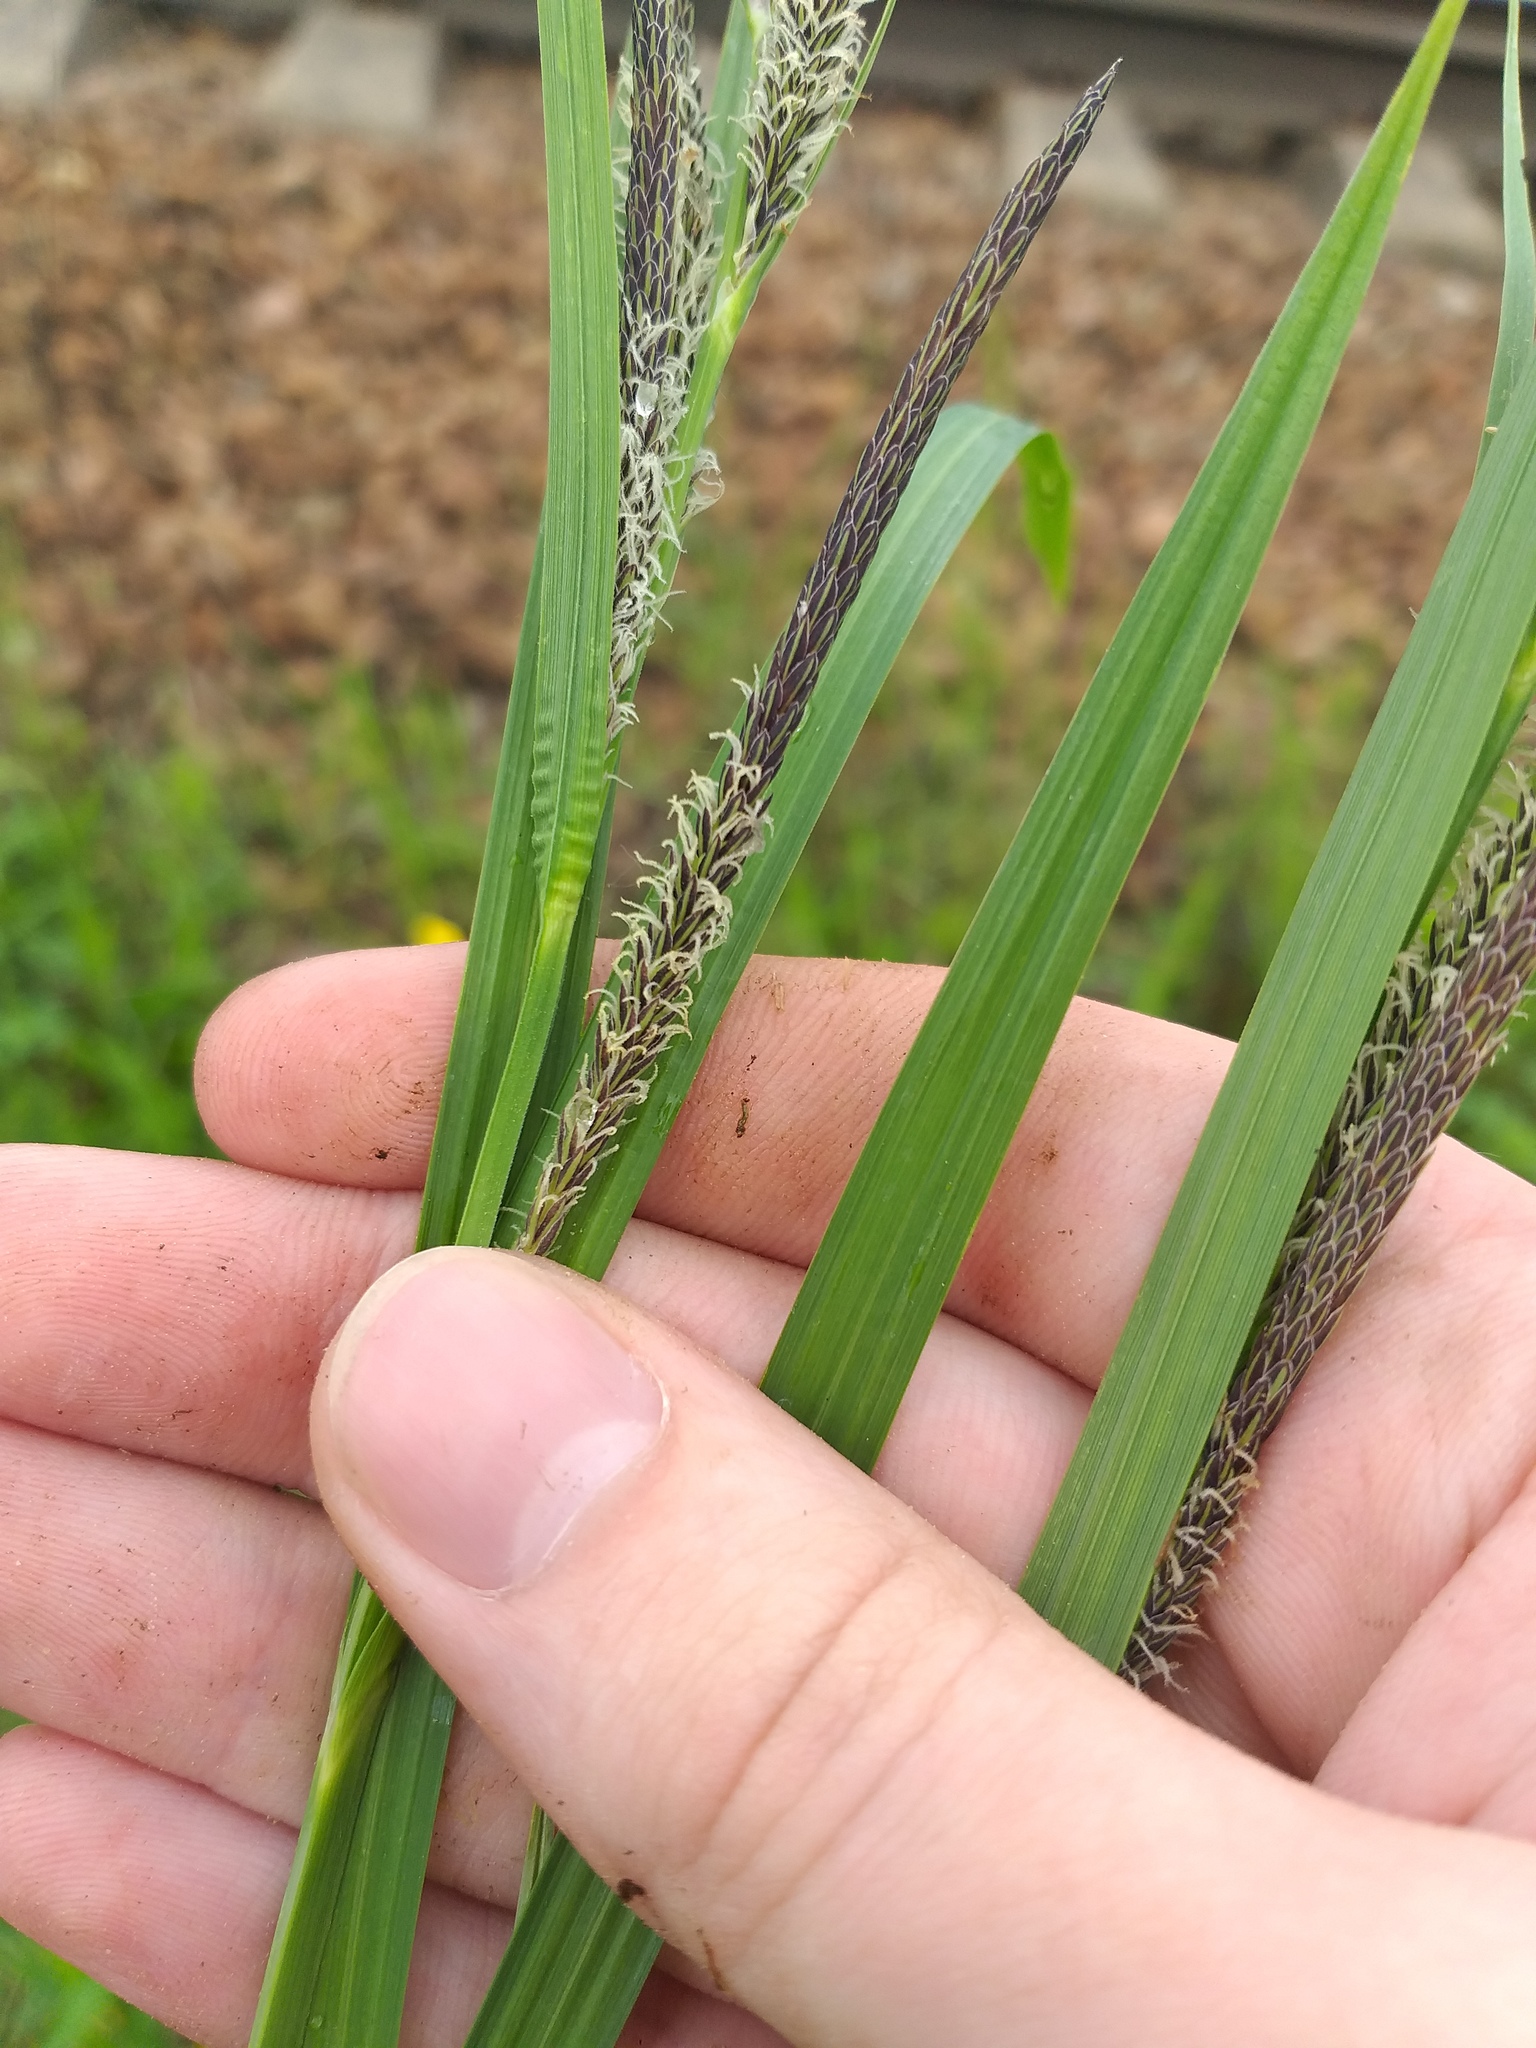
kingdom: Plantae
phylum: Tracheophyta
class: Liliopsida
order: Poales
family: Cyperaceae
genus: Carex
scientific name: Carex acuta
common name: Slender tufted-sedge
